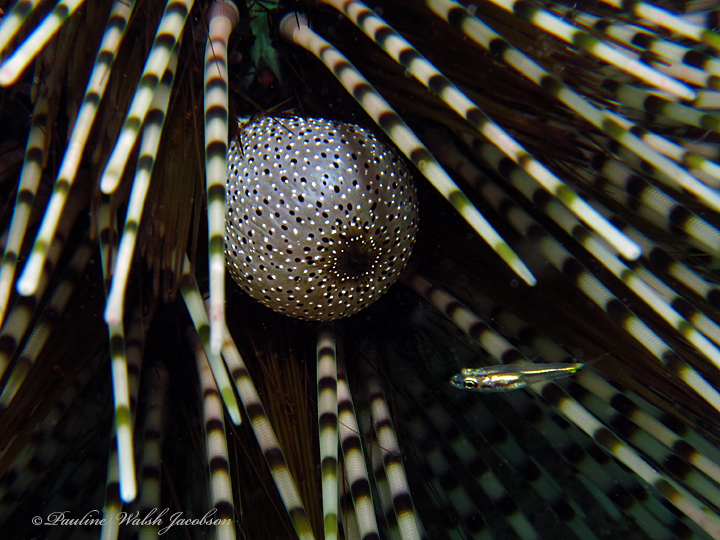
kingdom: Animalia
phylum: Echinodermata
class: Echinoidea
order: Diadematoida
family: Diadematidae
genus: Echinothrix
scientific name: Echinothrix calamaris
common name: Banded sea urchin
